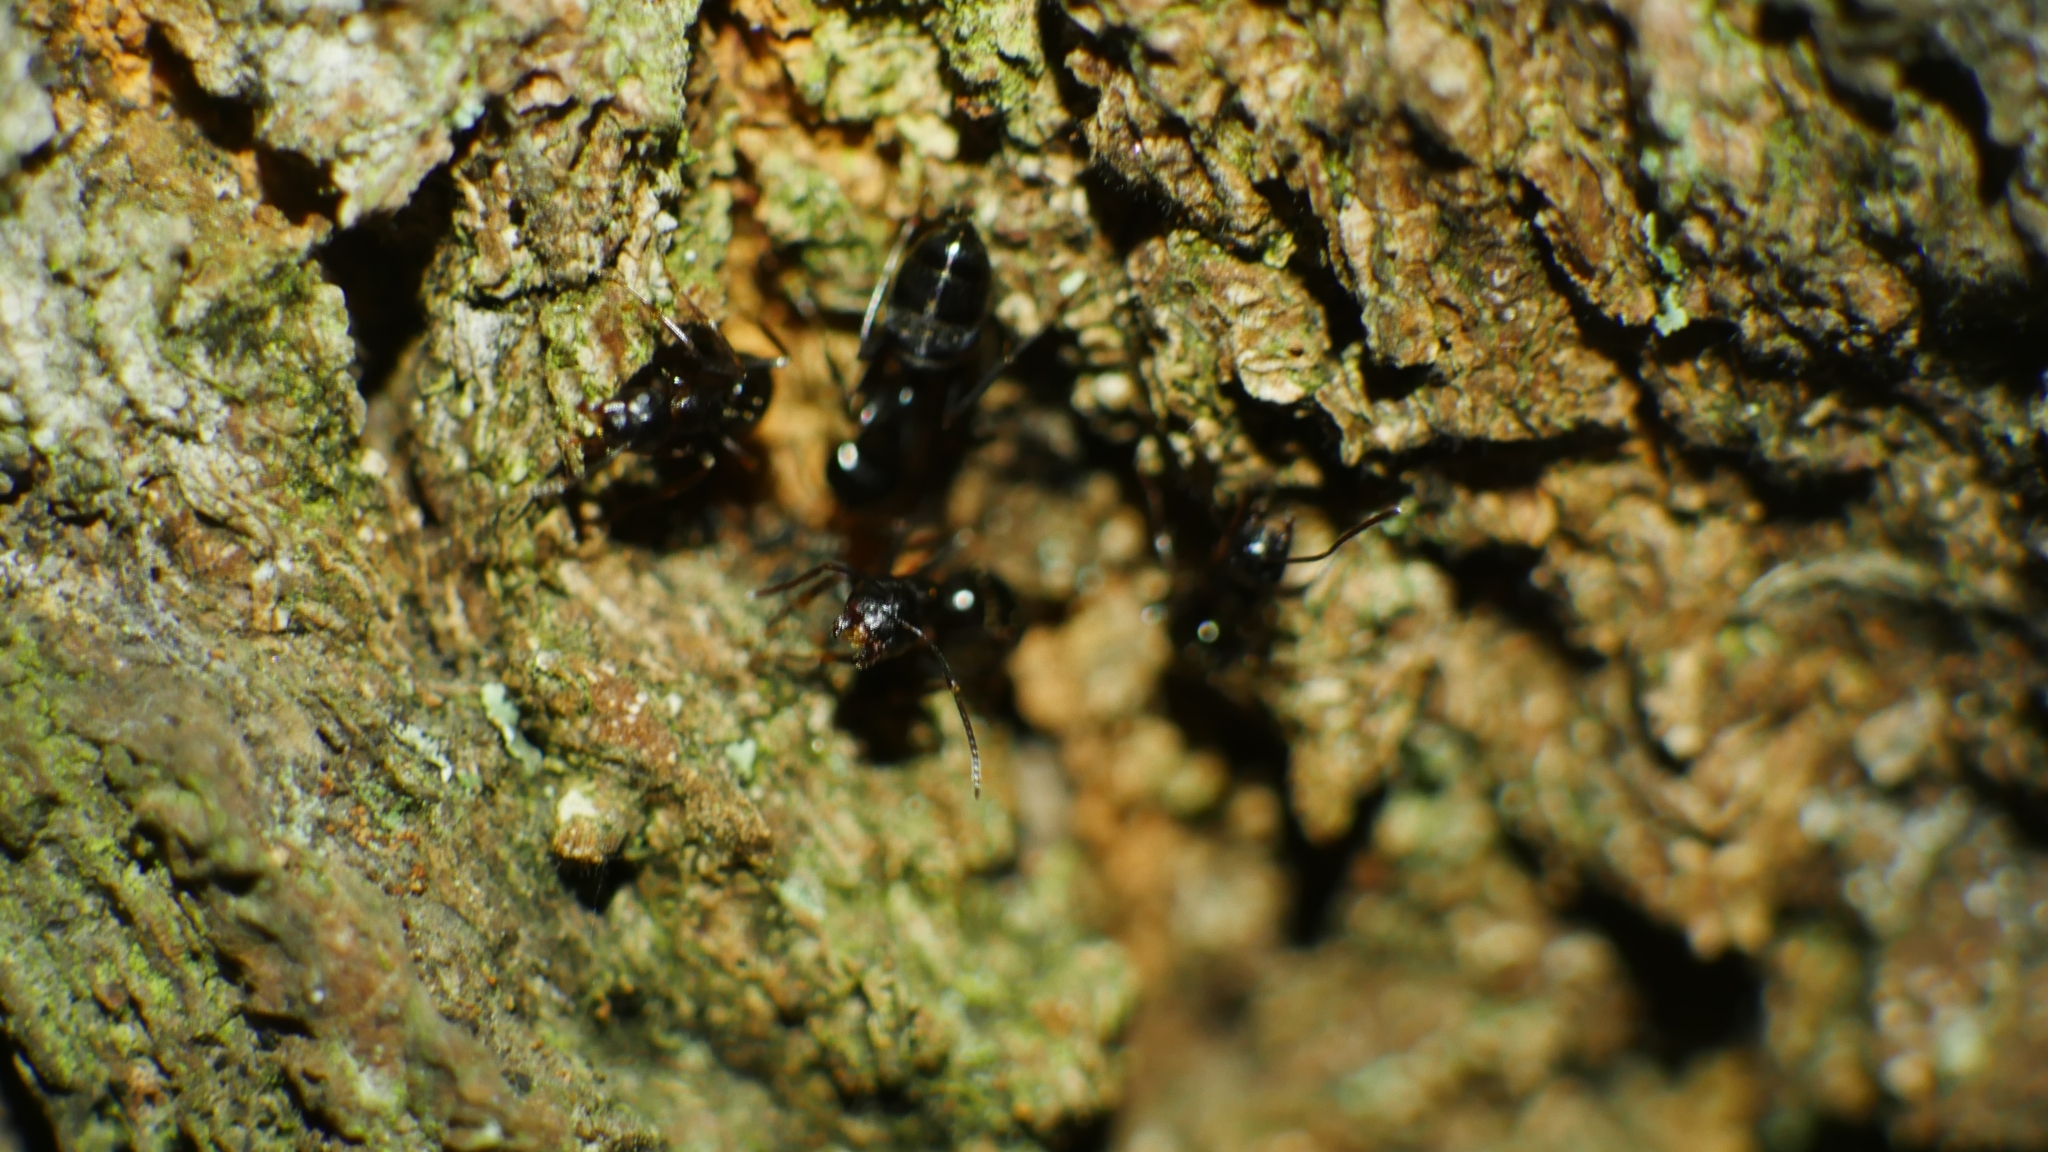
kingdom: Animalia
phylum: Arthropoda
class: Insecta
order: Hymenoptera
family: Formicidae
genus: Camponotus
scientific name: Camponotus nearcticus
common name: Smaller carpenter ant
